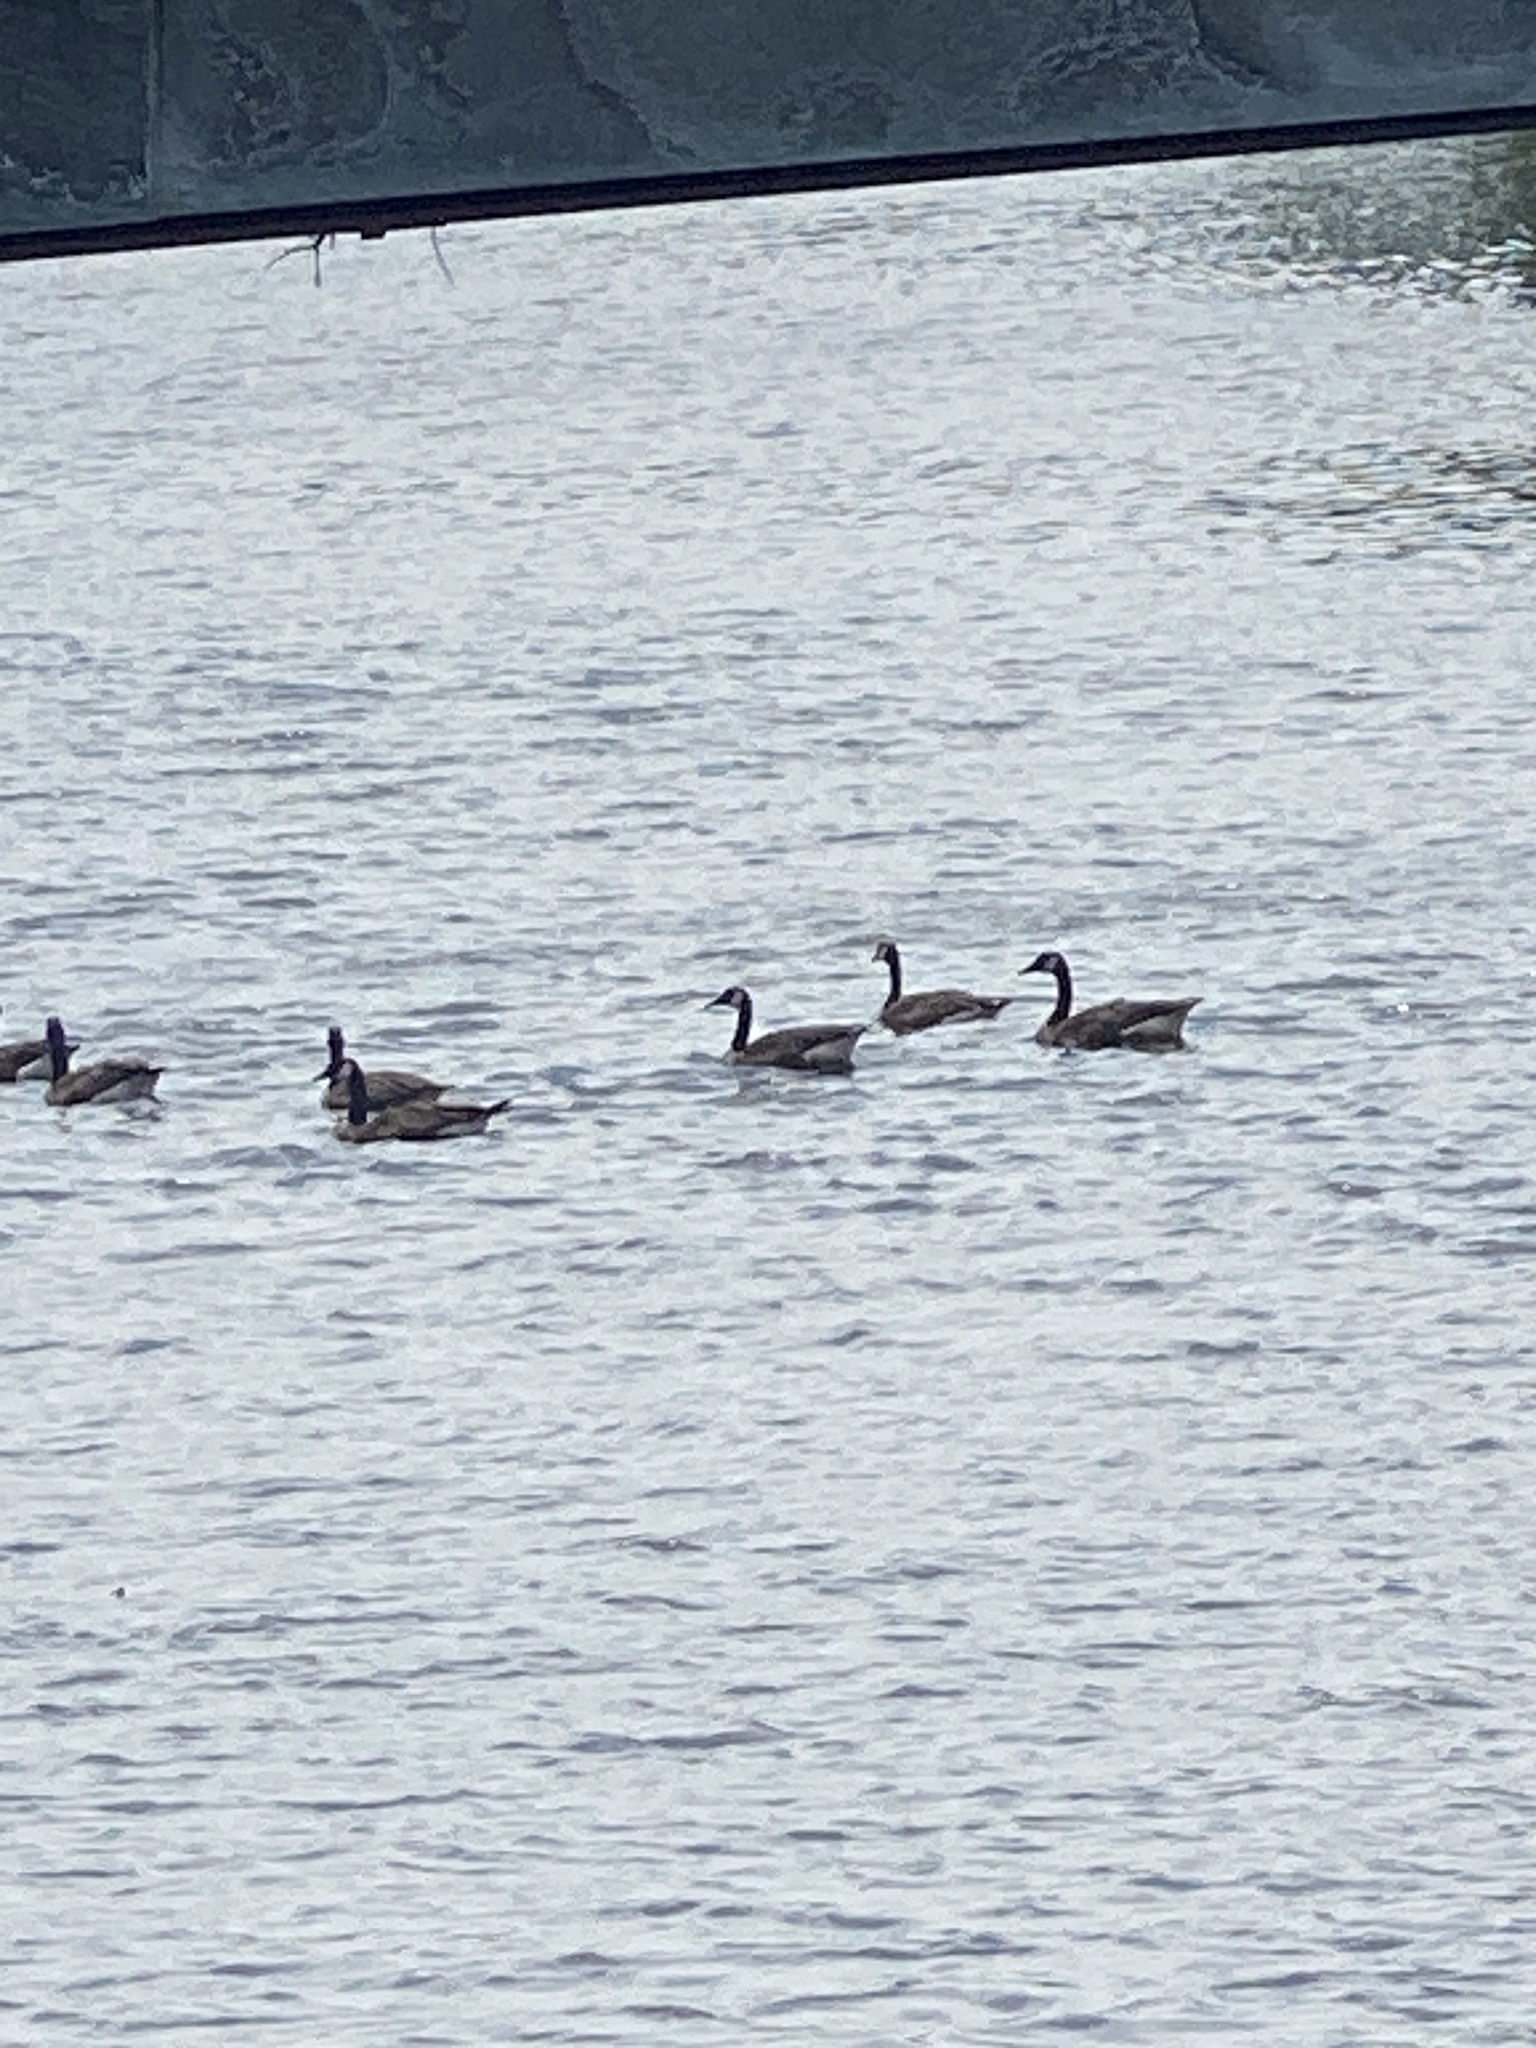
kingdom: Animalia
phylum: Chordata
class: Aves
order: Anseriformes
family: Anatidae
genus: Branta
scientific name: Branta canadensis
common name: Canada goose
